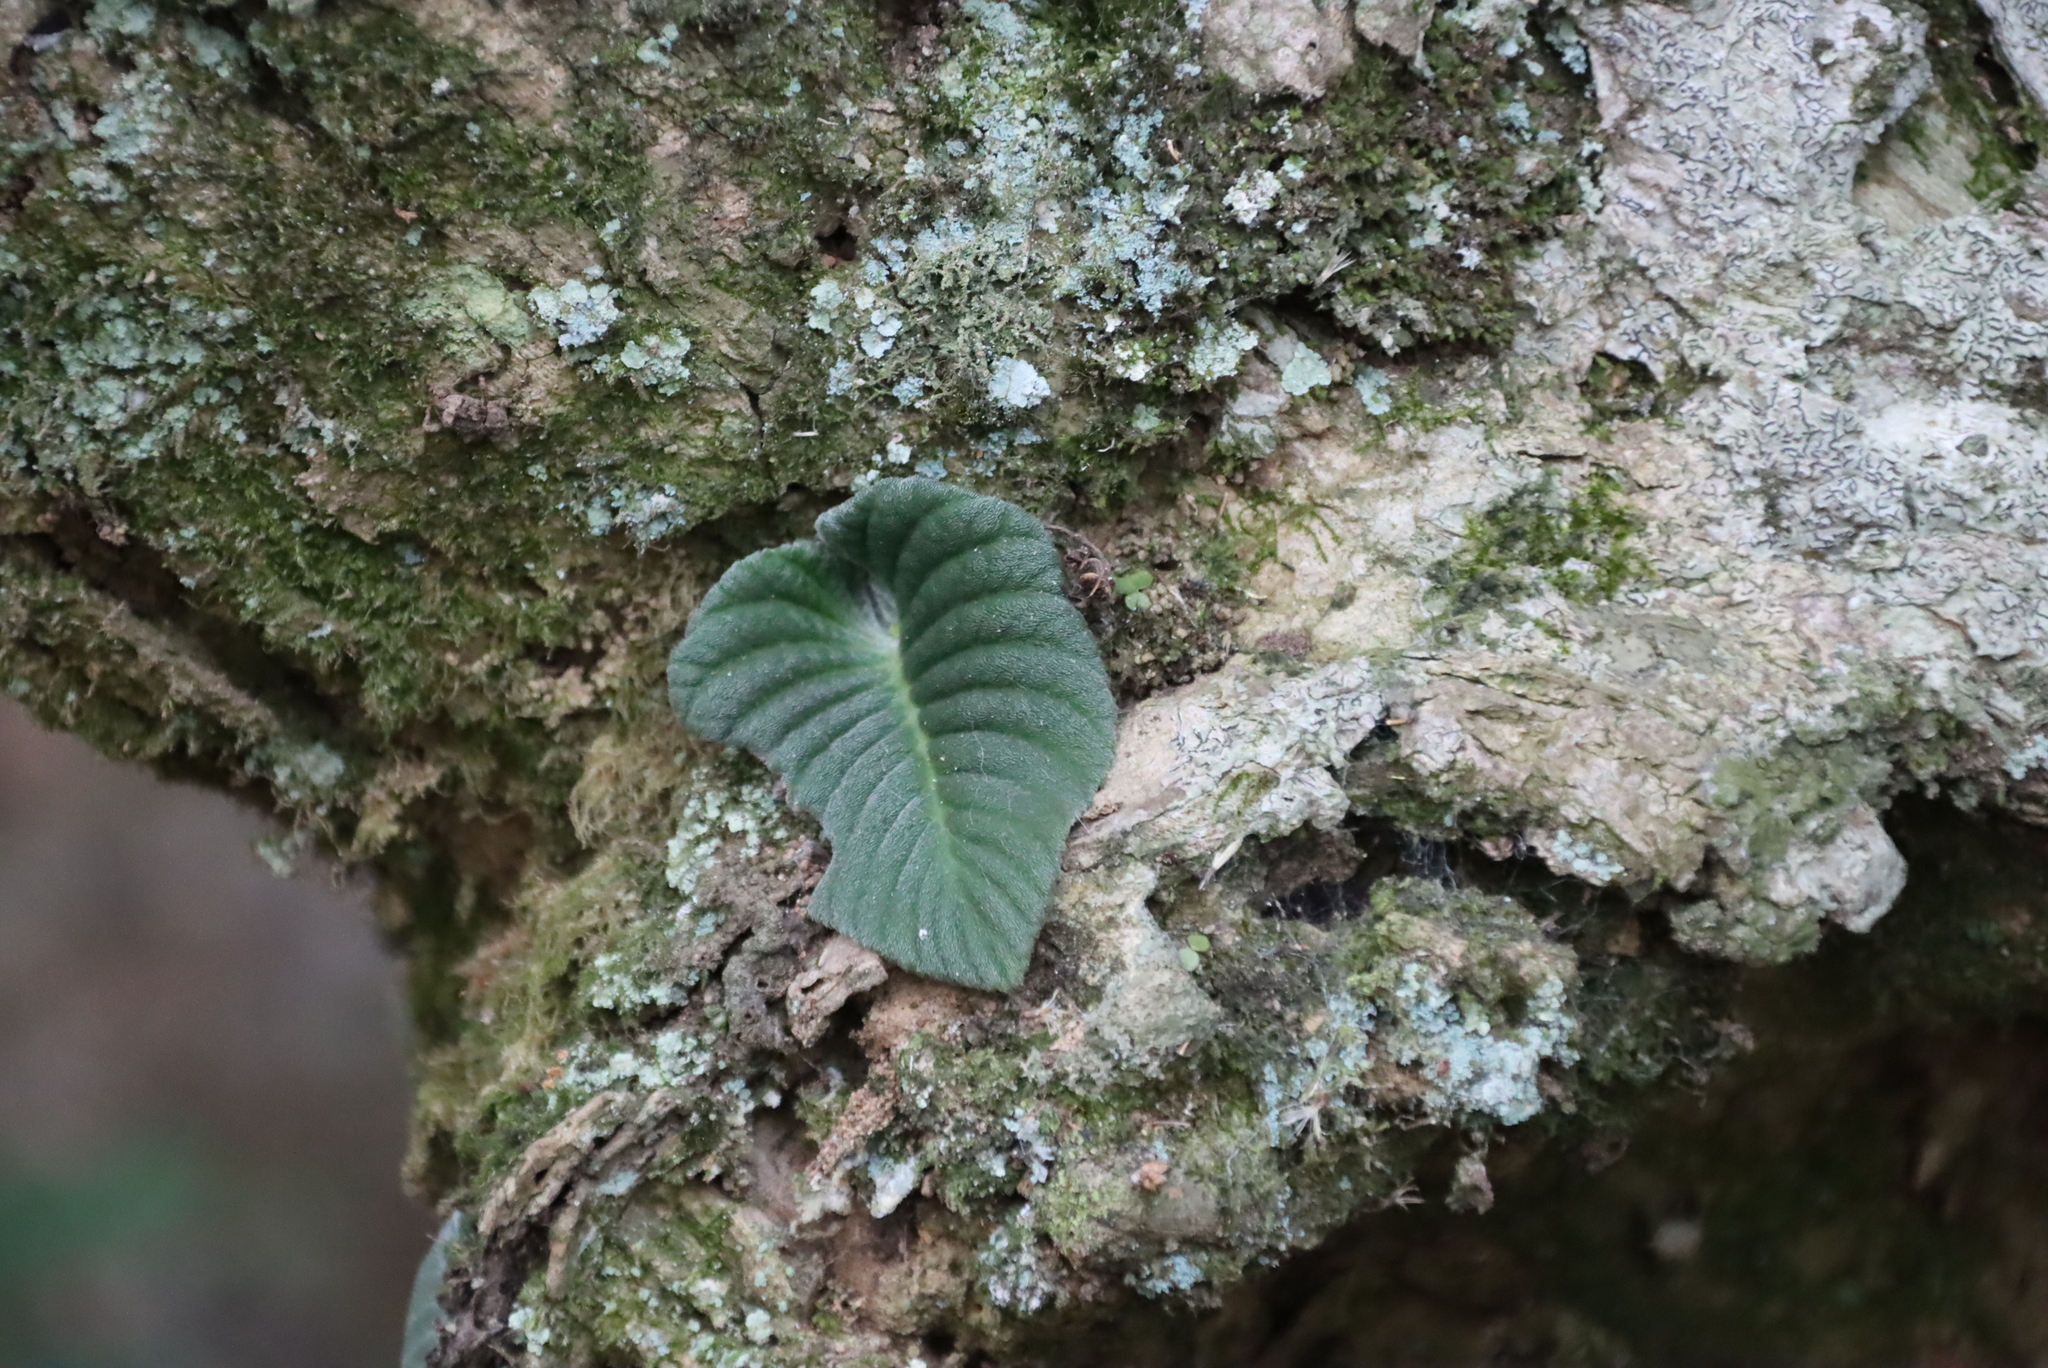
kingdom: Plantae
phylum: Tracheophyta
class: Magnoliopsida
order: Lamiales
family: Gesneriaceae
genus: Streptocarpus
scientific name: Streptocarpus galpinii
